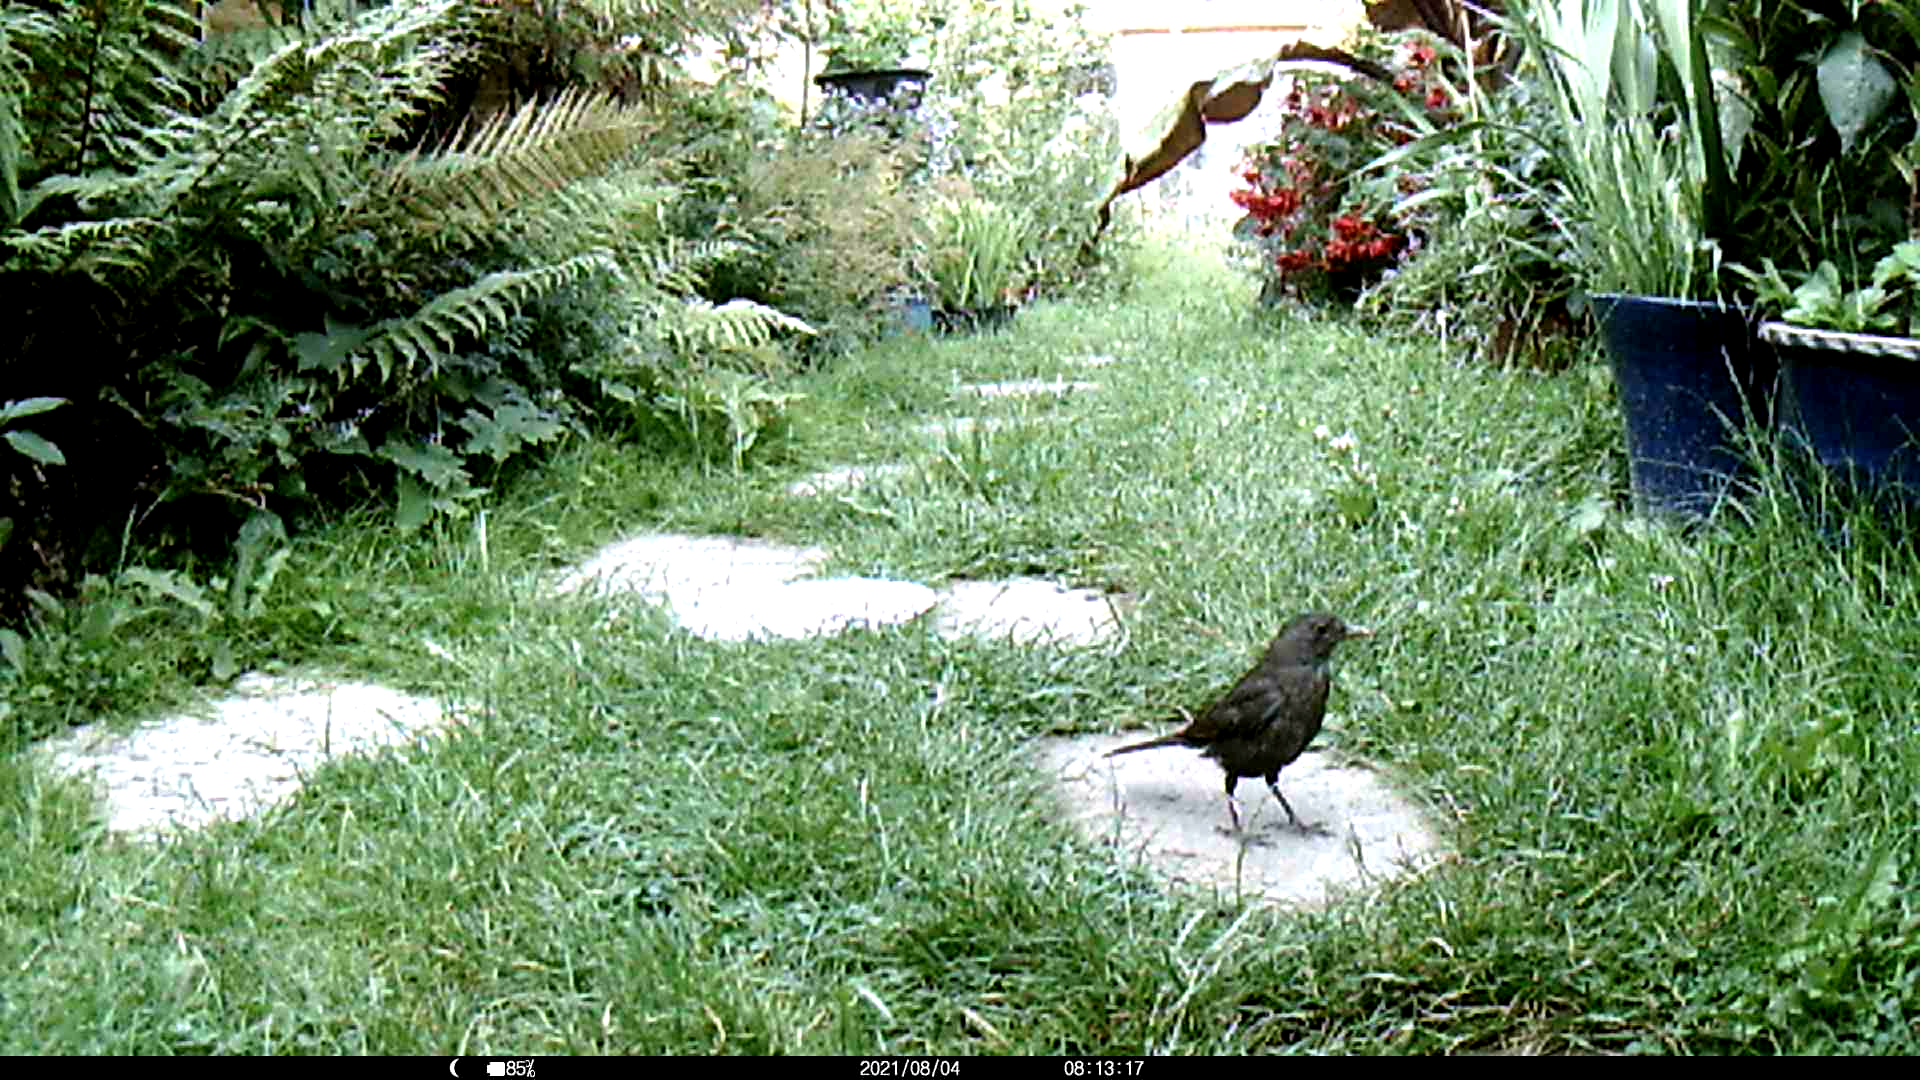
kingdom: Animalia
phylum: Chordata
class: Aves
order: Passeriformes
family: Turdidae
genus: Turdus
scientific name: Turdus merula
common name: Common blackbird
